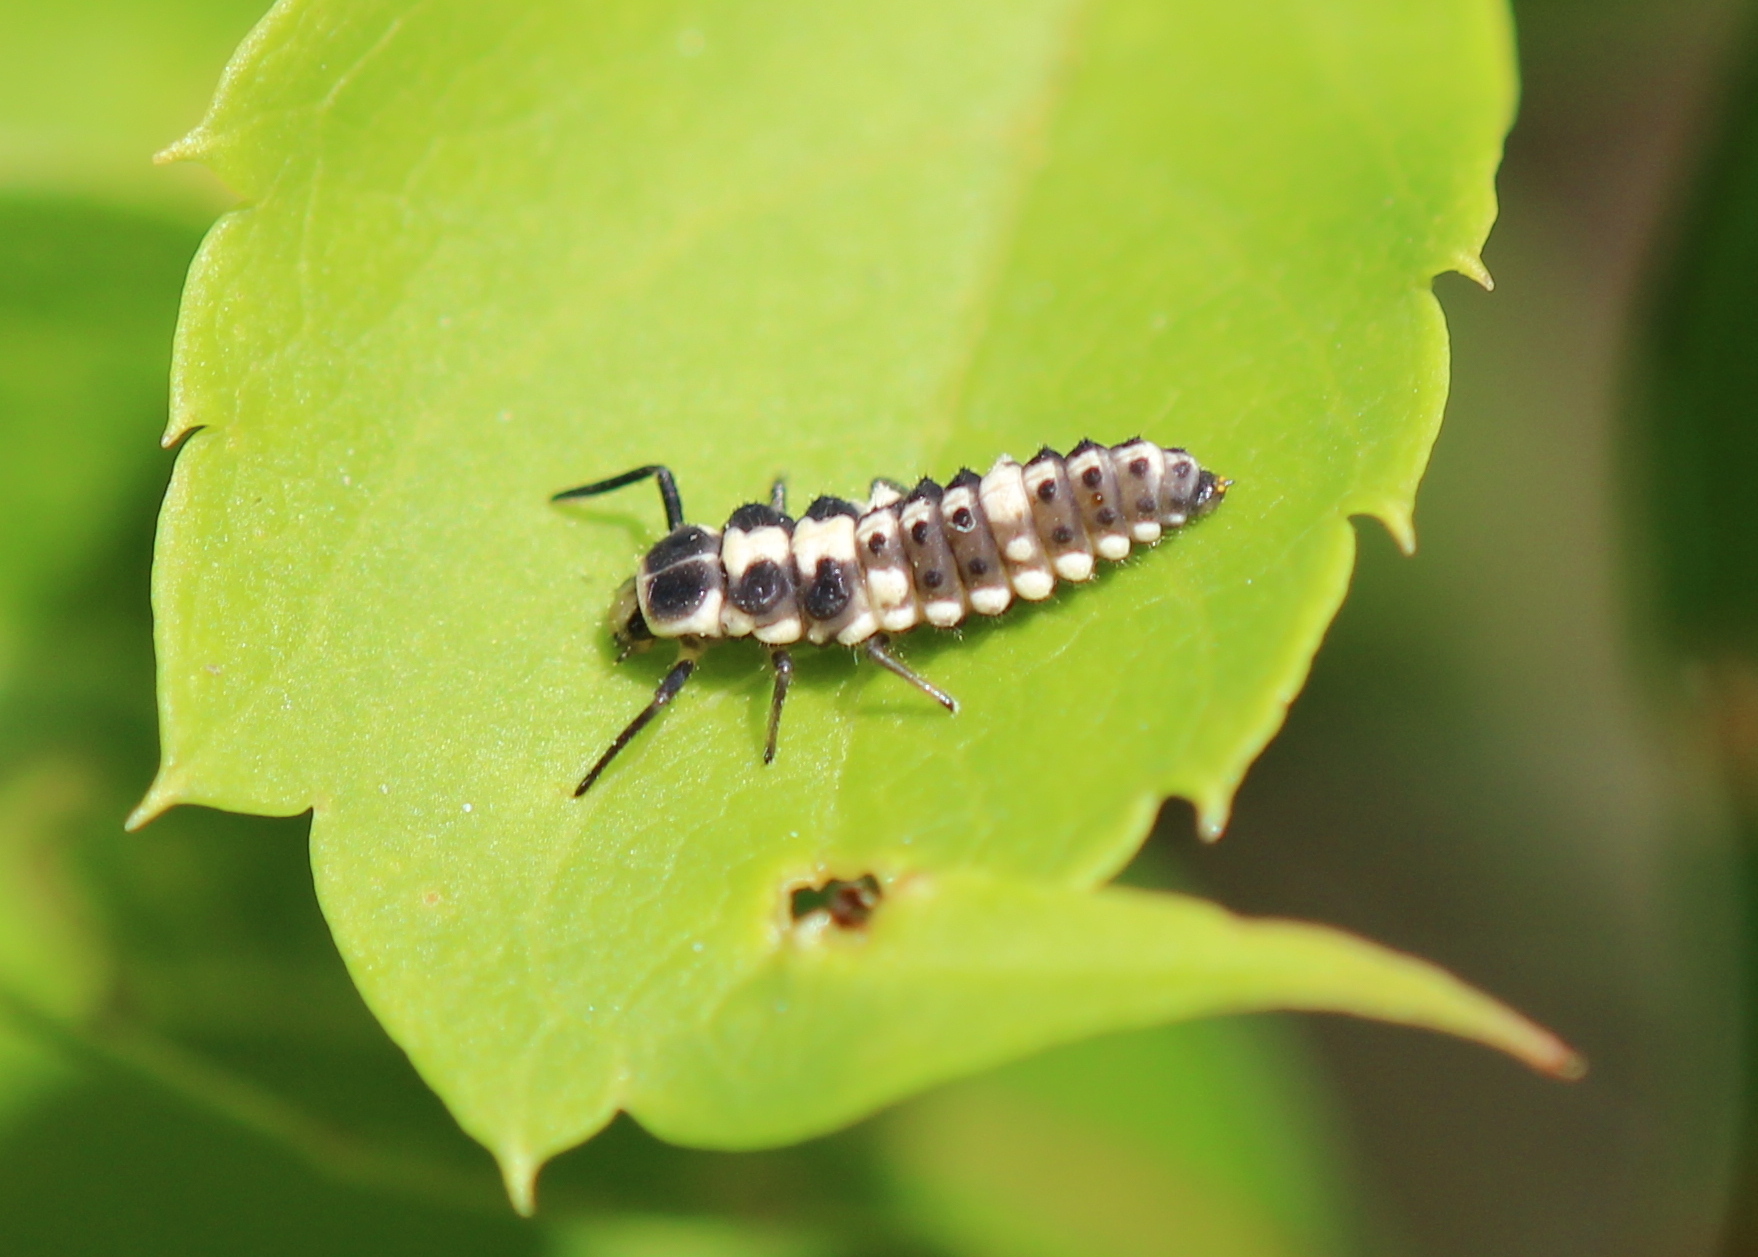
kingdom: Animalia
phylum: Arthropoda
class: Insecta
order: Coleoptera
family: Coccinellidae
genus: Propylaea
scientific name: Propylaea quatuordecimpunctata
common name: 14-spotted ladybird beetle
